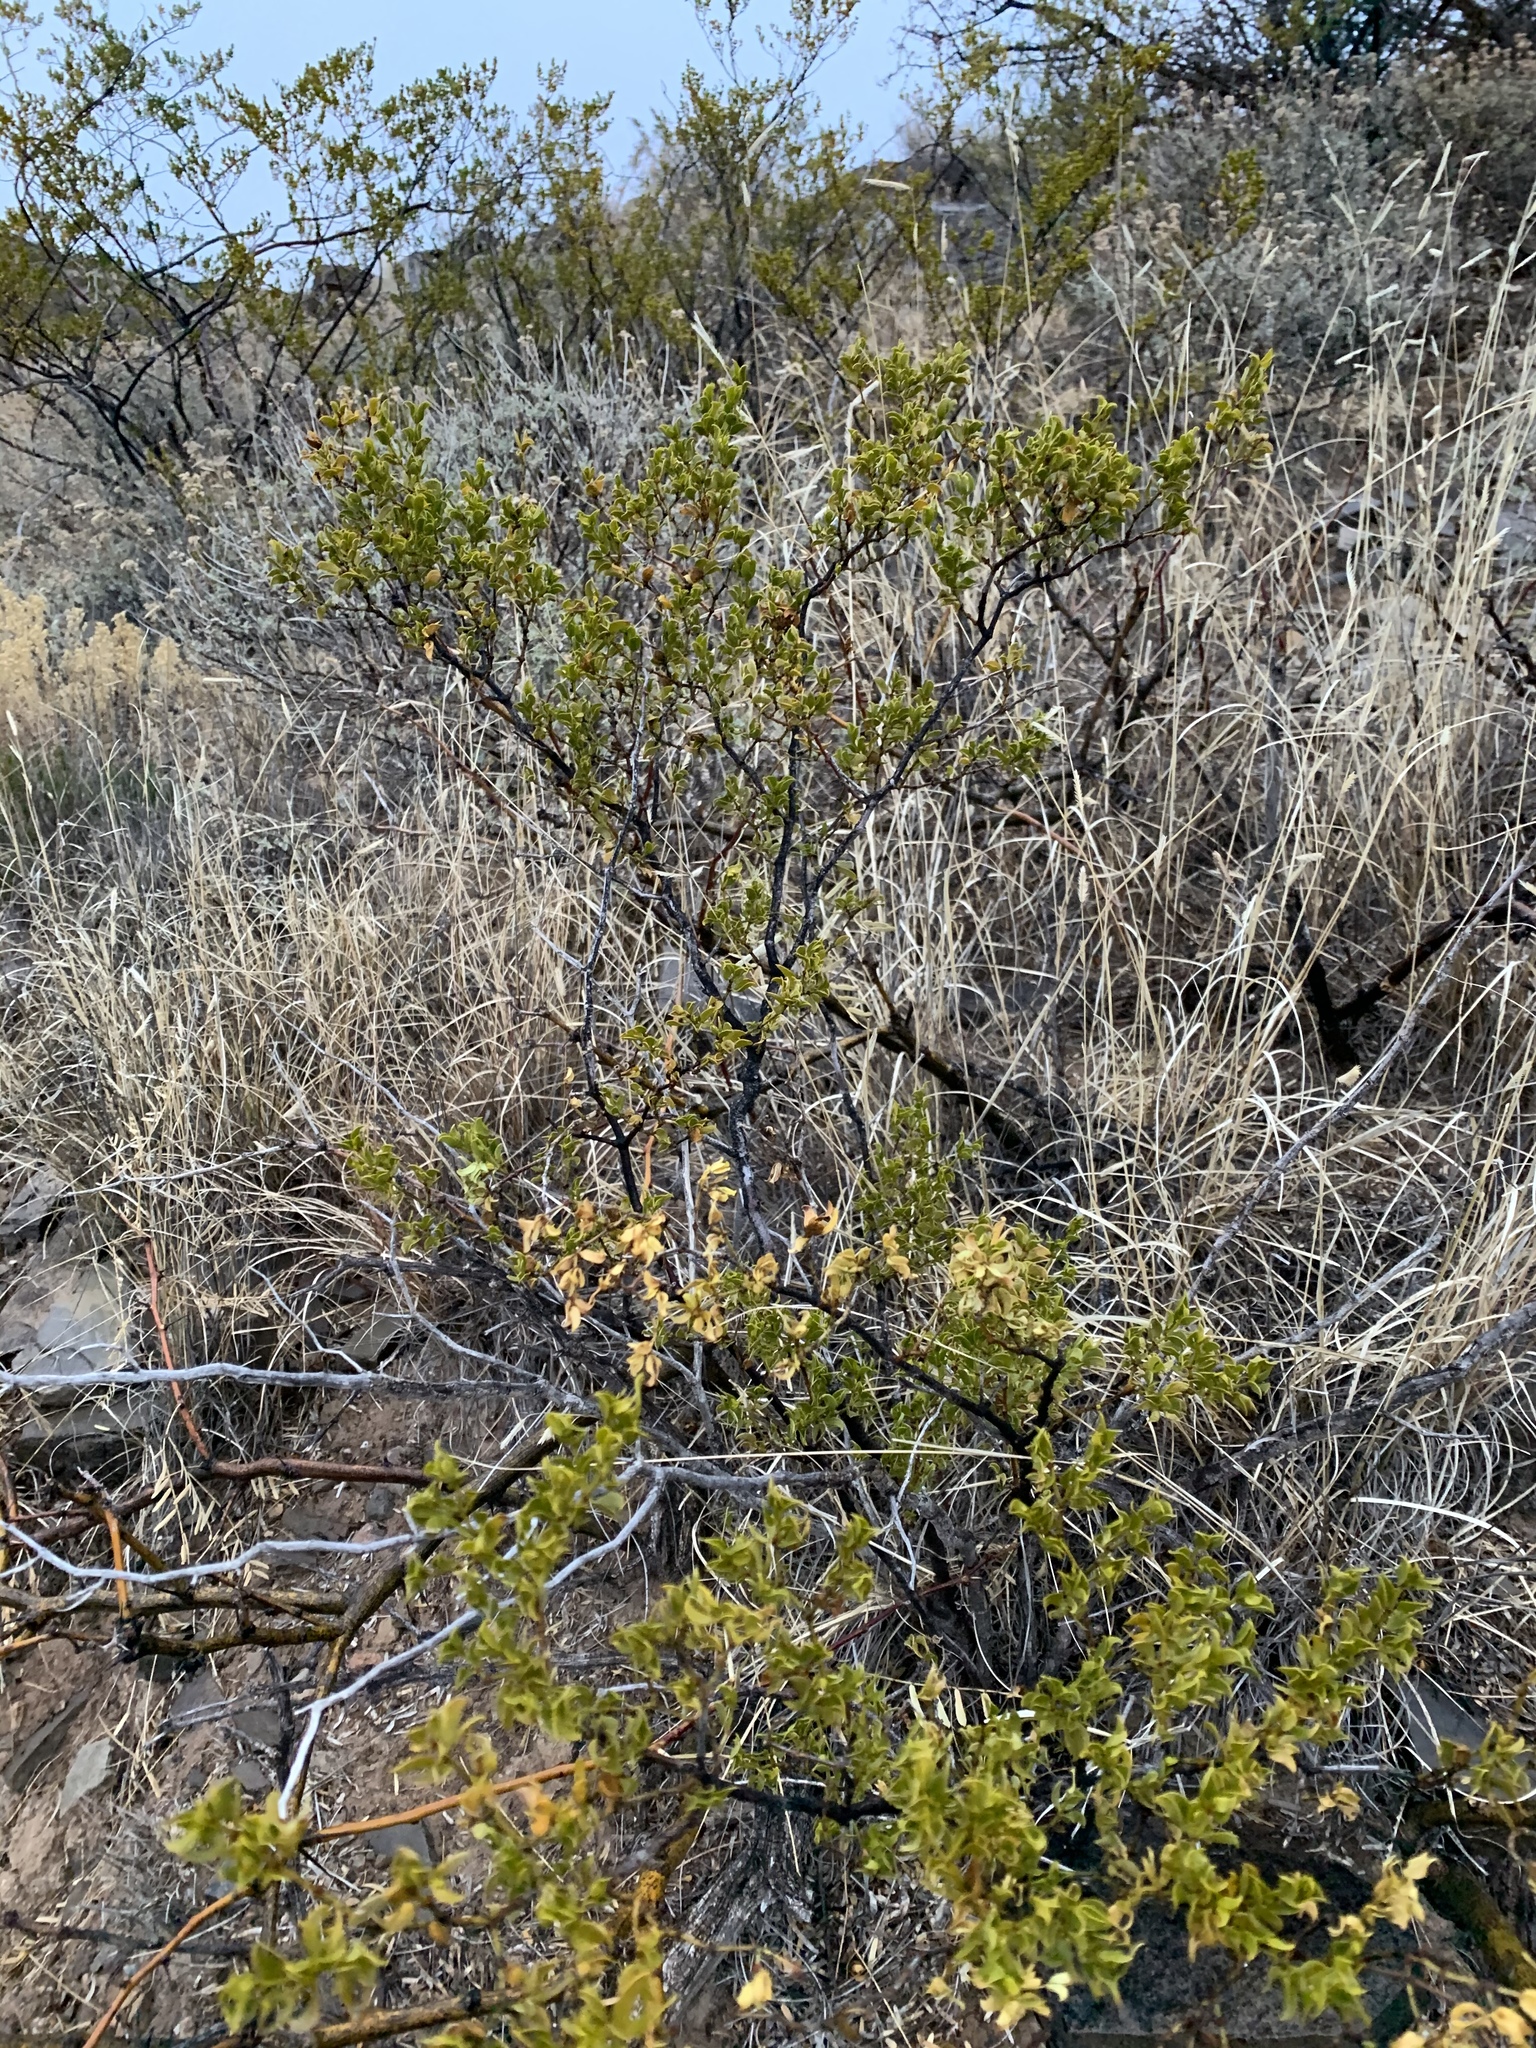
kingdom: Plantae
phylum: Tracheophyta
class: Magnoliopsida
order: Zygophyllales
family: Zygophyllaceae
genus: Larrea
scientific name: Larrea tridentata
